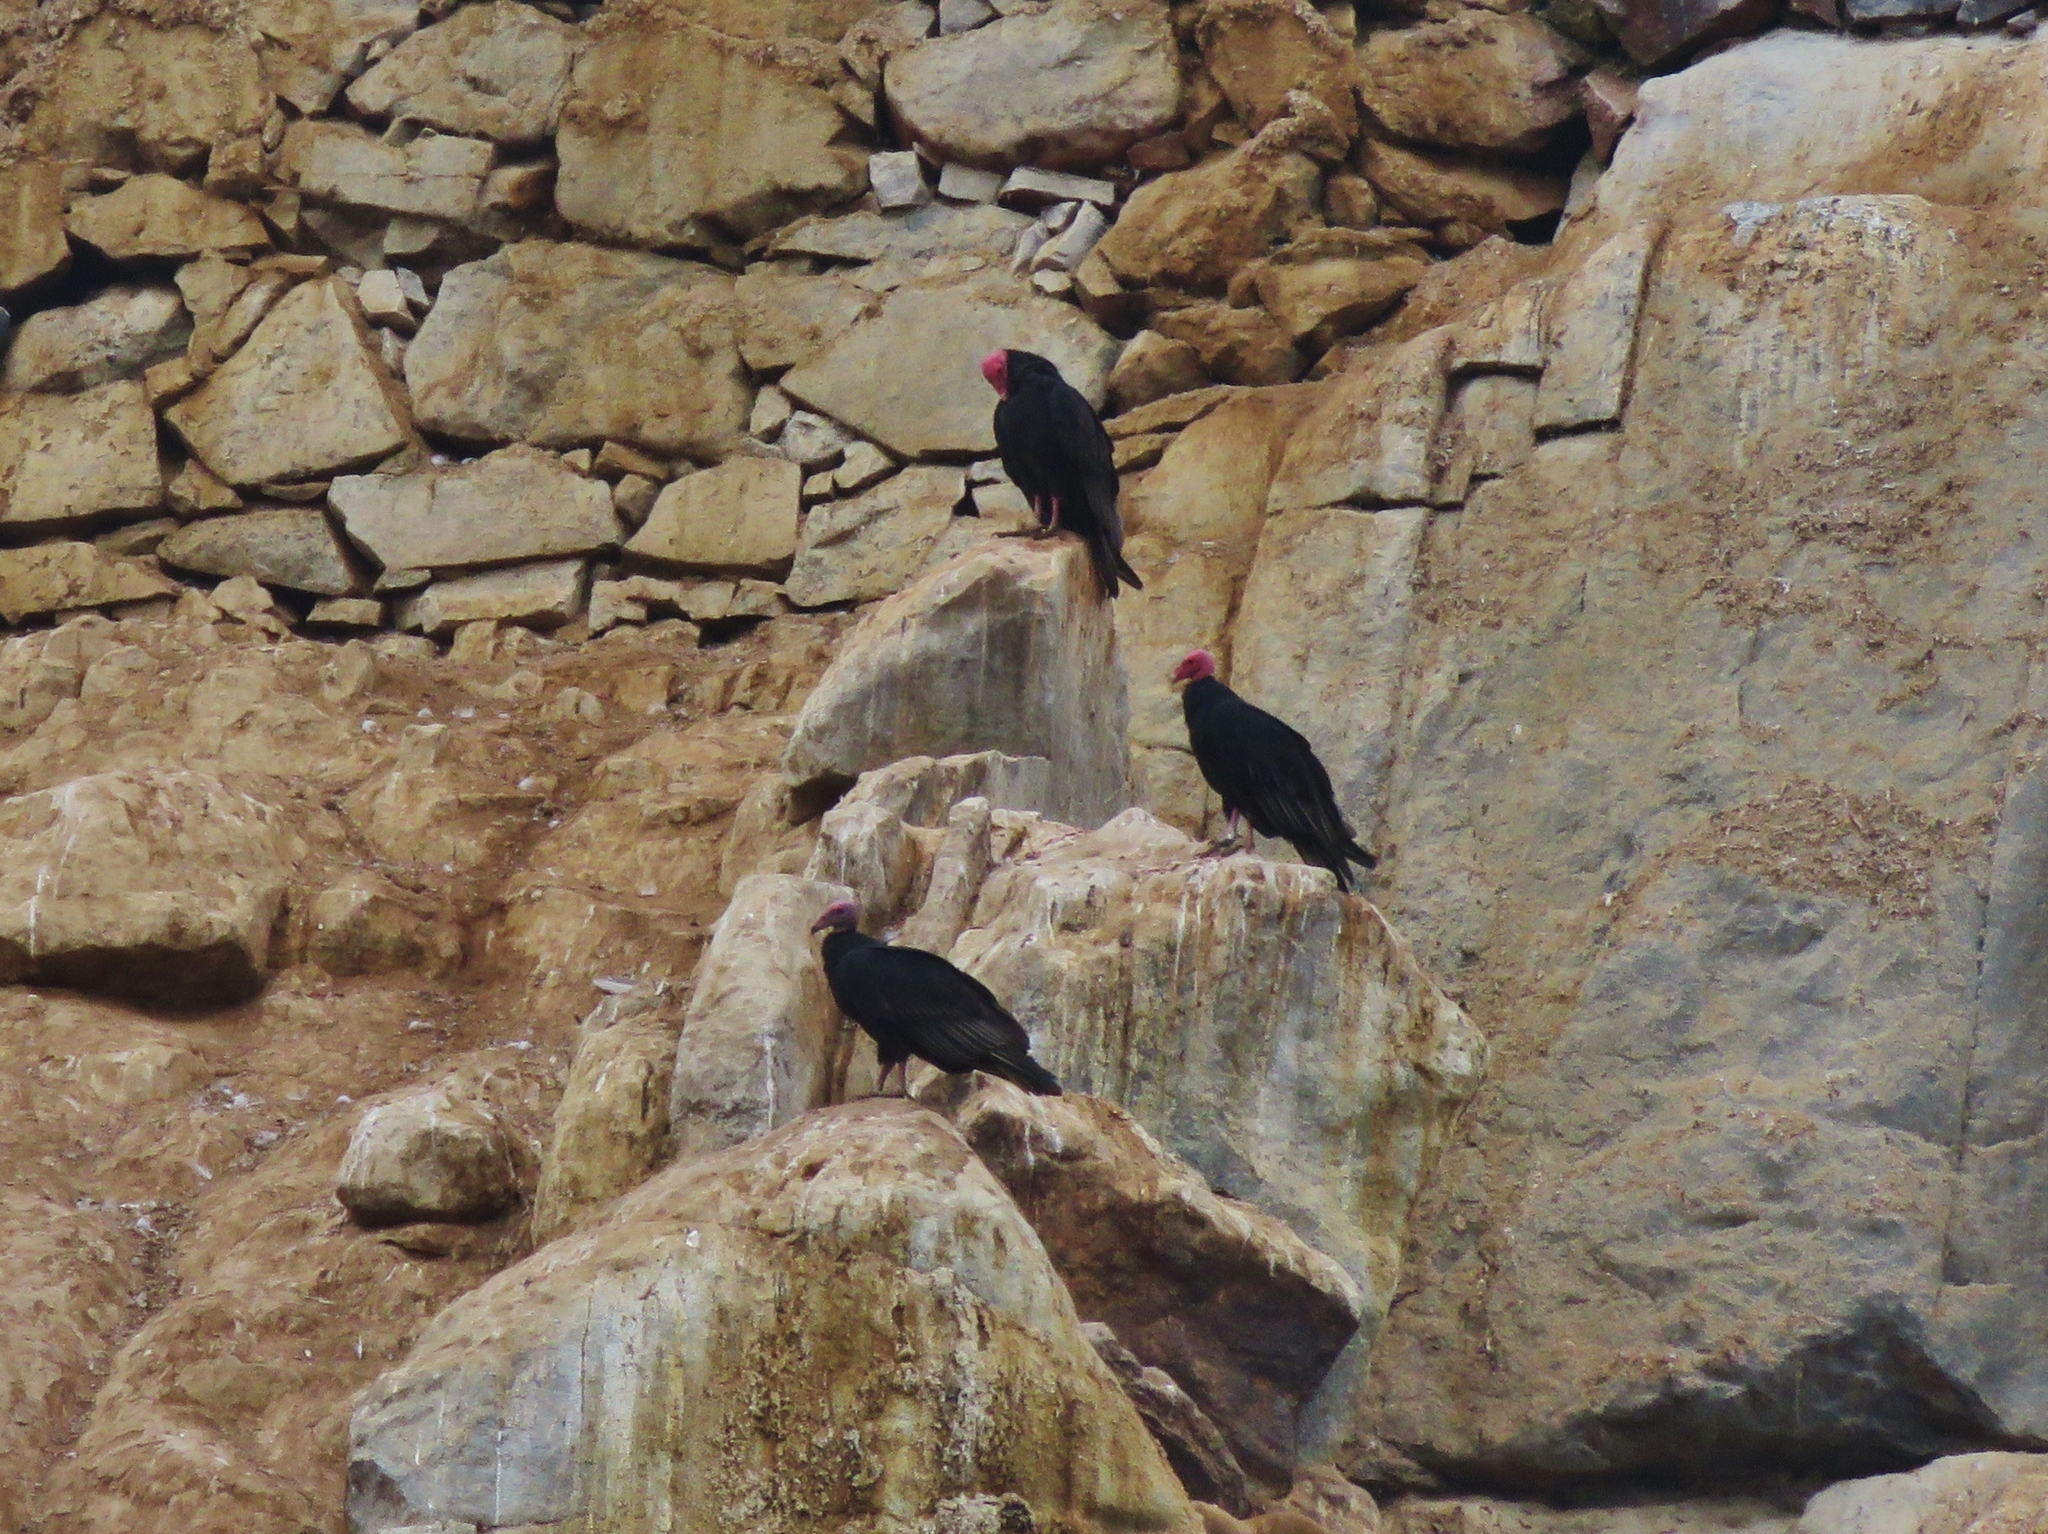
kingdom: Animalia
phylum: Chordata
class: Aves
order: Accipitriformes
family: Cathartidae
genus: Cathartes
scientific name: Cathartes aura
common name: Turkey vulture
